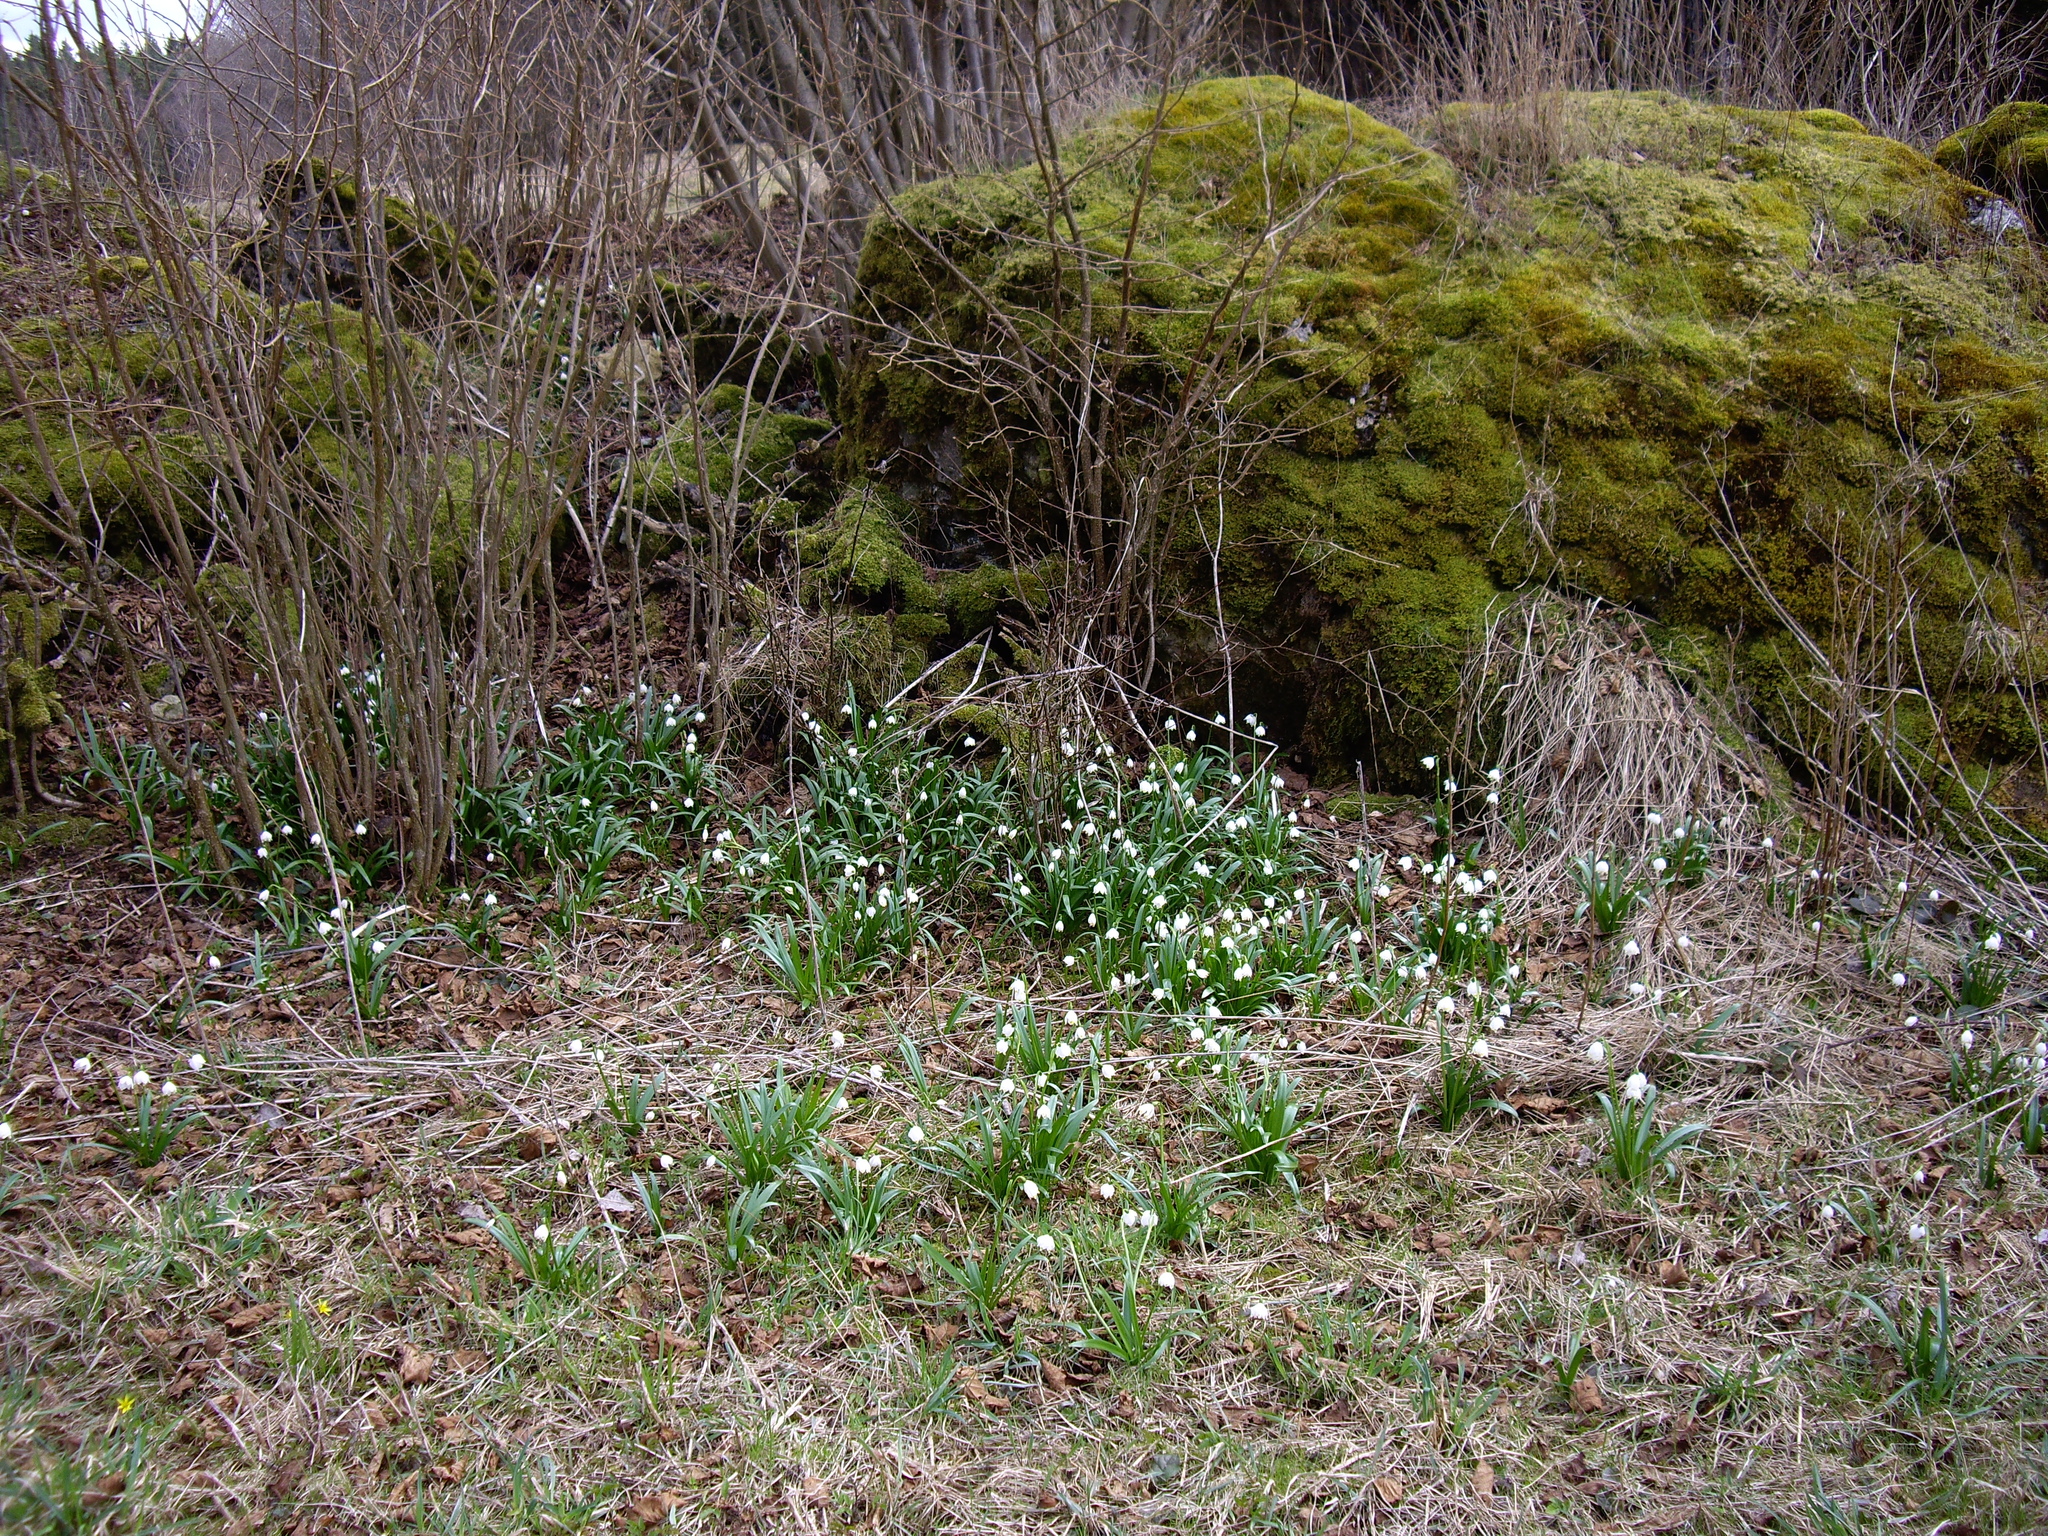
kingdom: Plantae
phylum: Tracheophyta
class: Liliopsida
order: Asparagales
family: Amaryllidaceae
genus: Leucojum
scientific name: Leucojum vernum
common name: Spring snowflake
